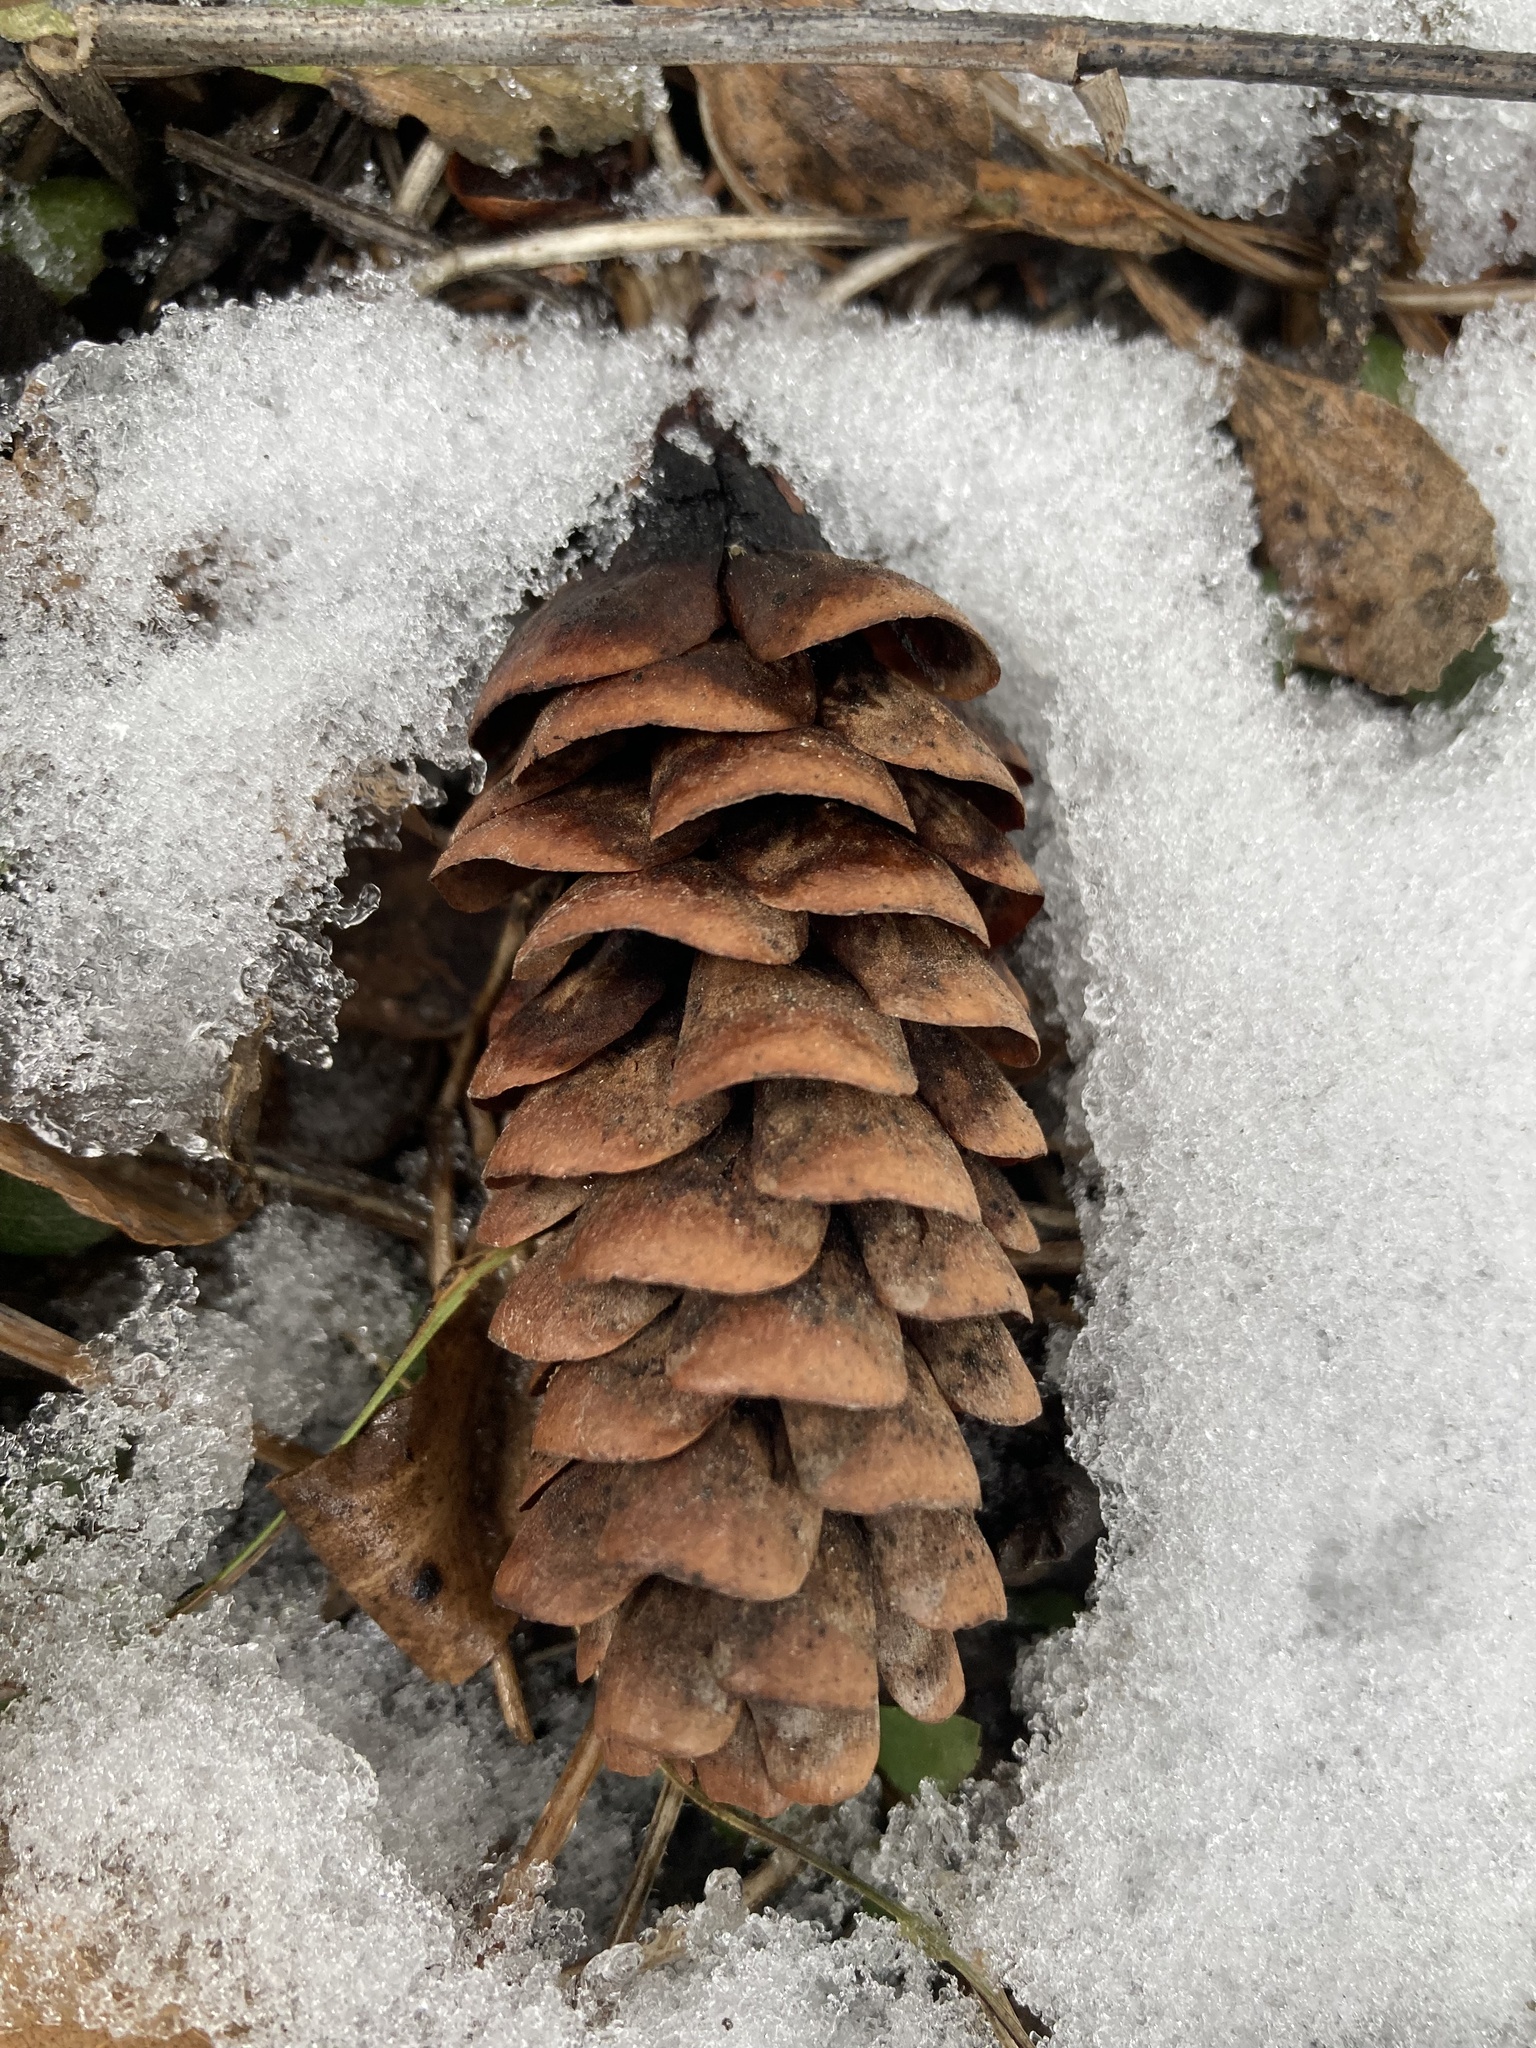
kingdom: Plantae
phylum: Tracheophyta
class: Pinopsida
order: Pinales
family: Pinaceae
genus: Picea
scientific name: Picea glauca
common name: White spruce
